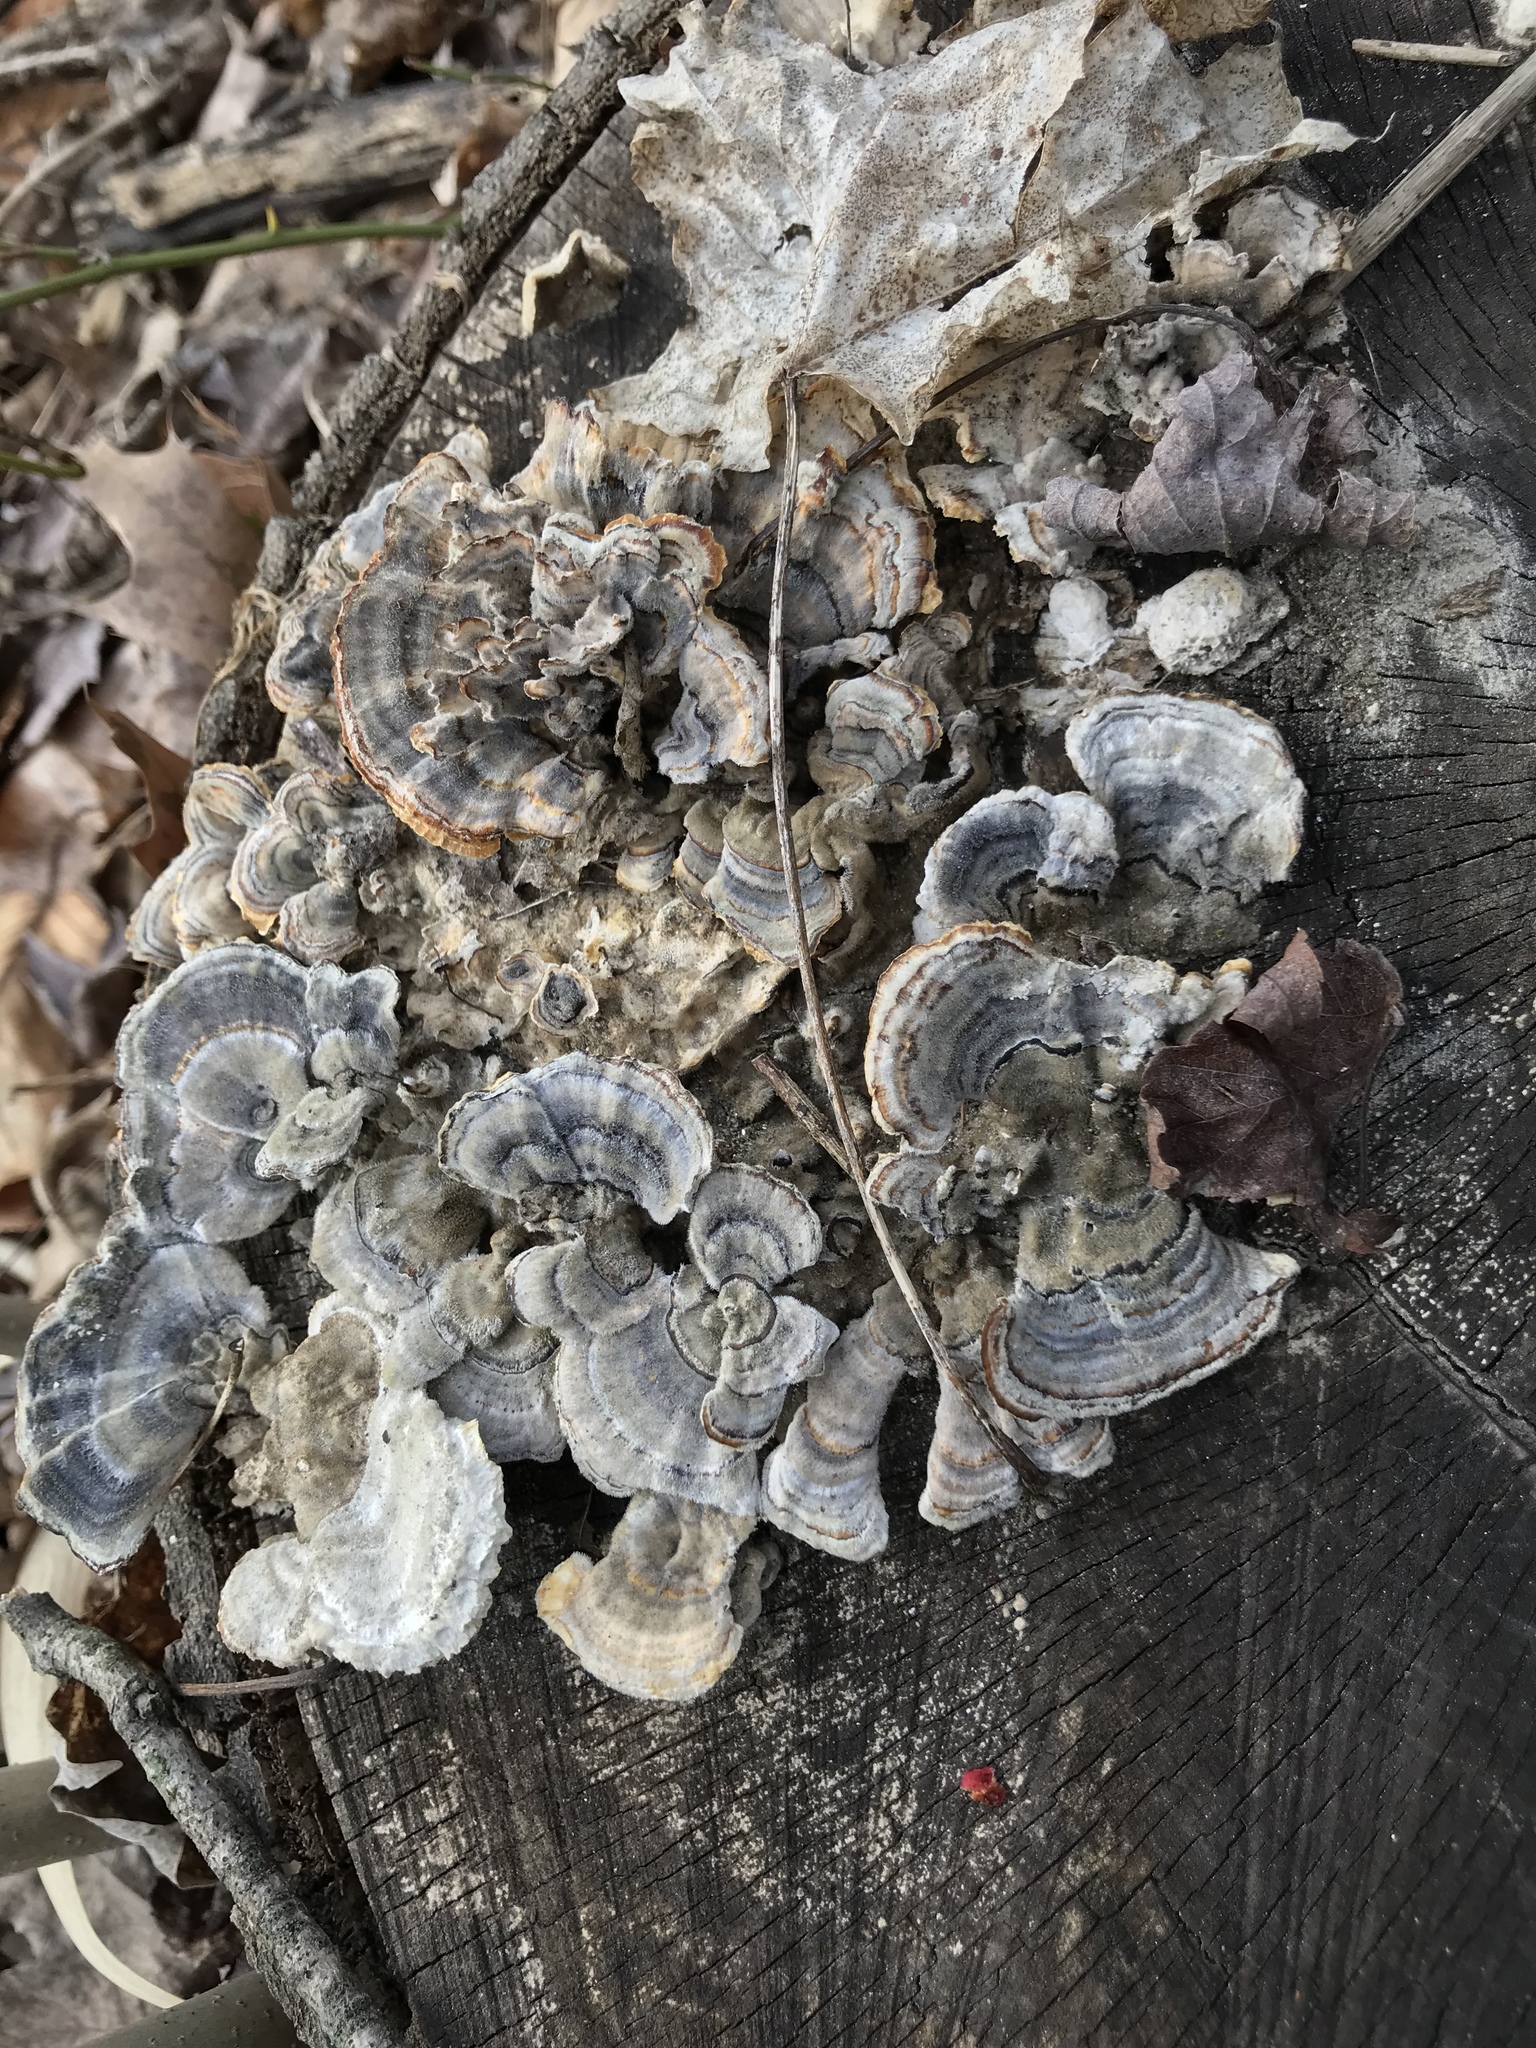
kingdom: Fungi
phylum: Basidiomycota
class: Agaricomycetes
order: Polyporales
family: Polyporaceae
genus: Trametes
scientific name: Trametes versicolor
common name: Turkeytail
